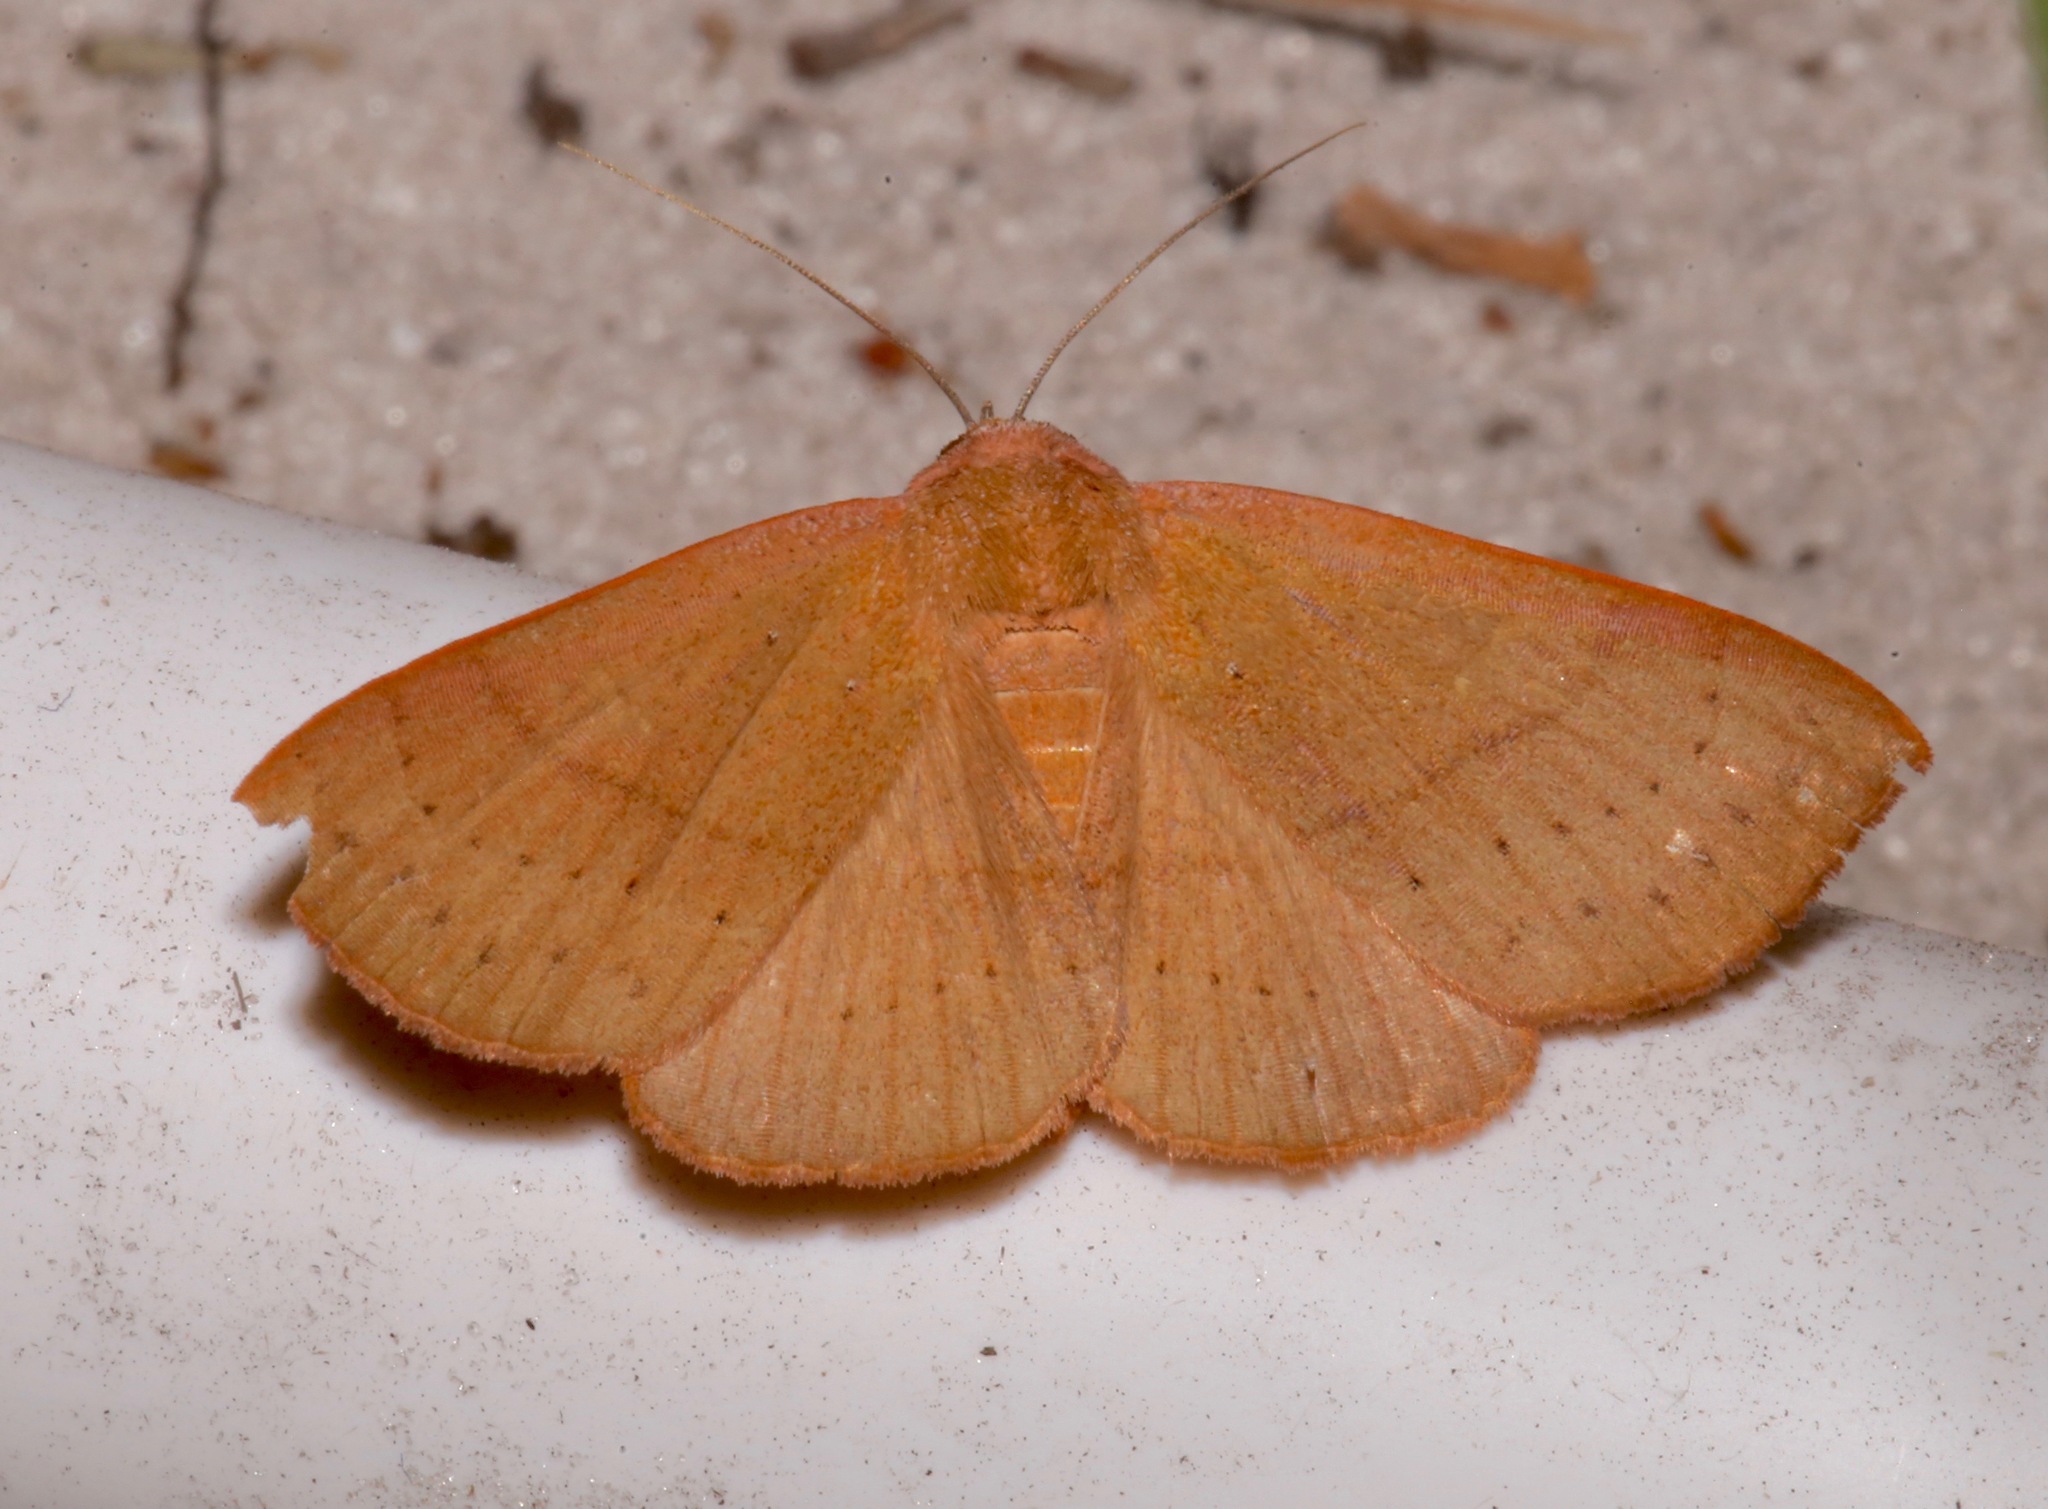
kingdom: Animalia
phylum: Arthropoda
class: Insecta
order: Lepidoptera
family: Erebidae
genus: Panopoda
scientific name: Panopoda repanda
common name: Orange panopoda
